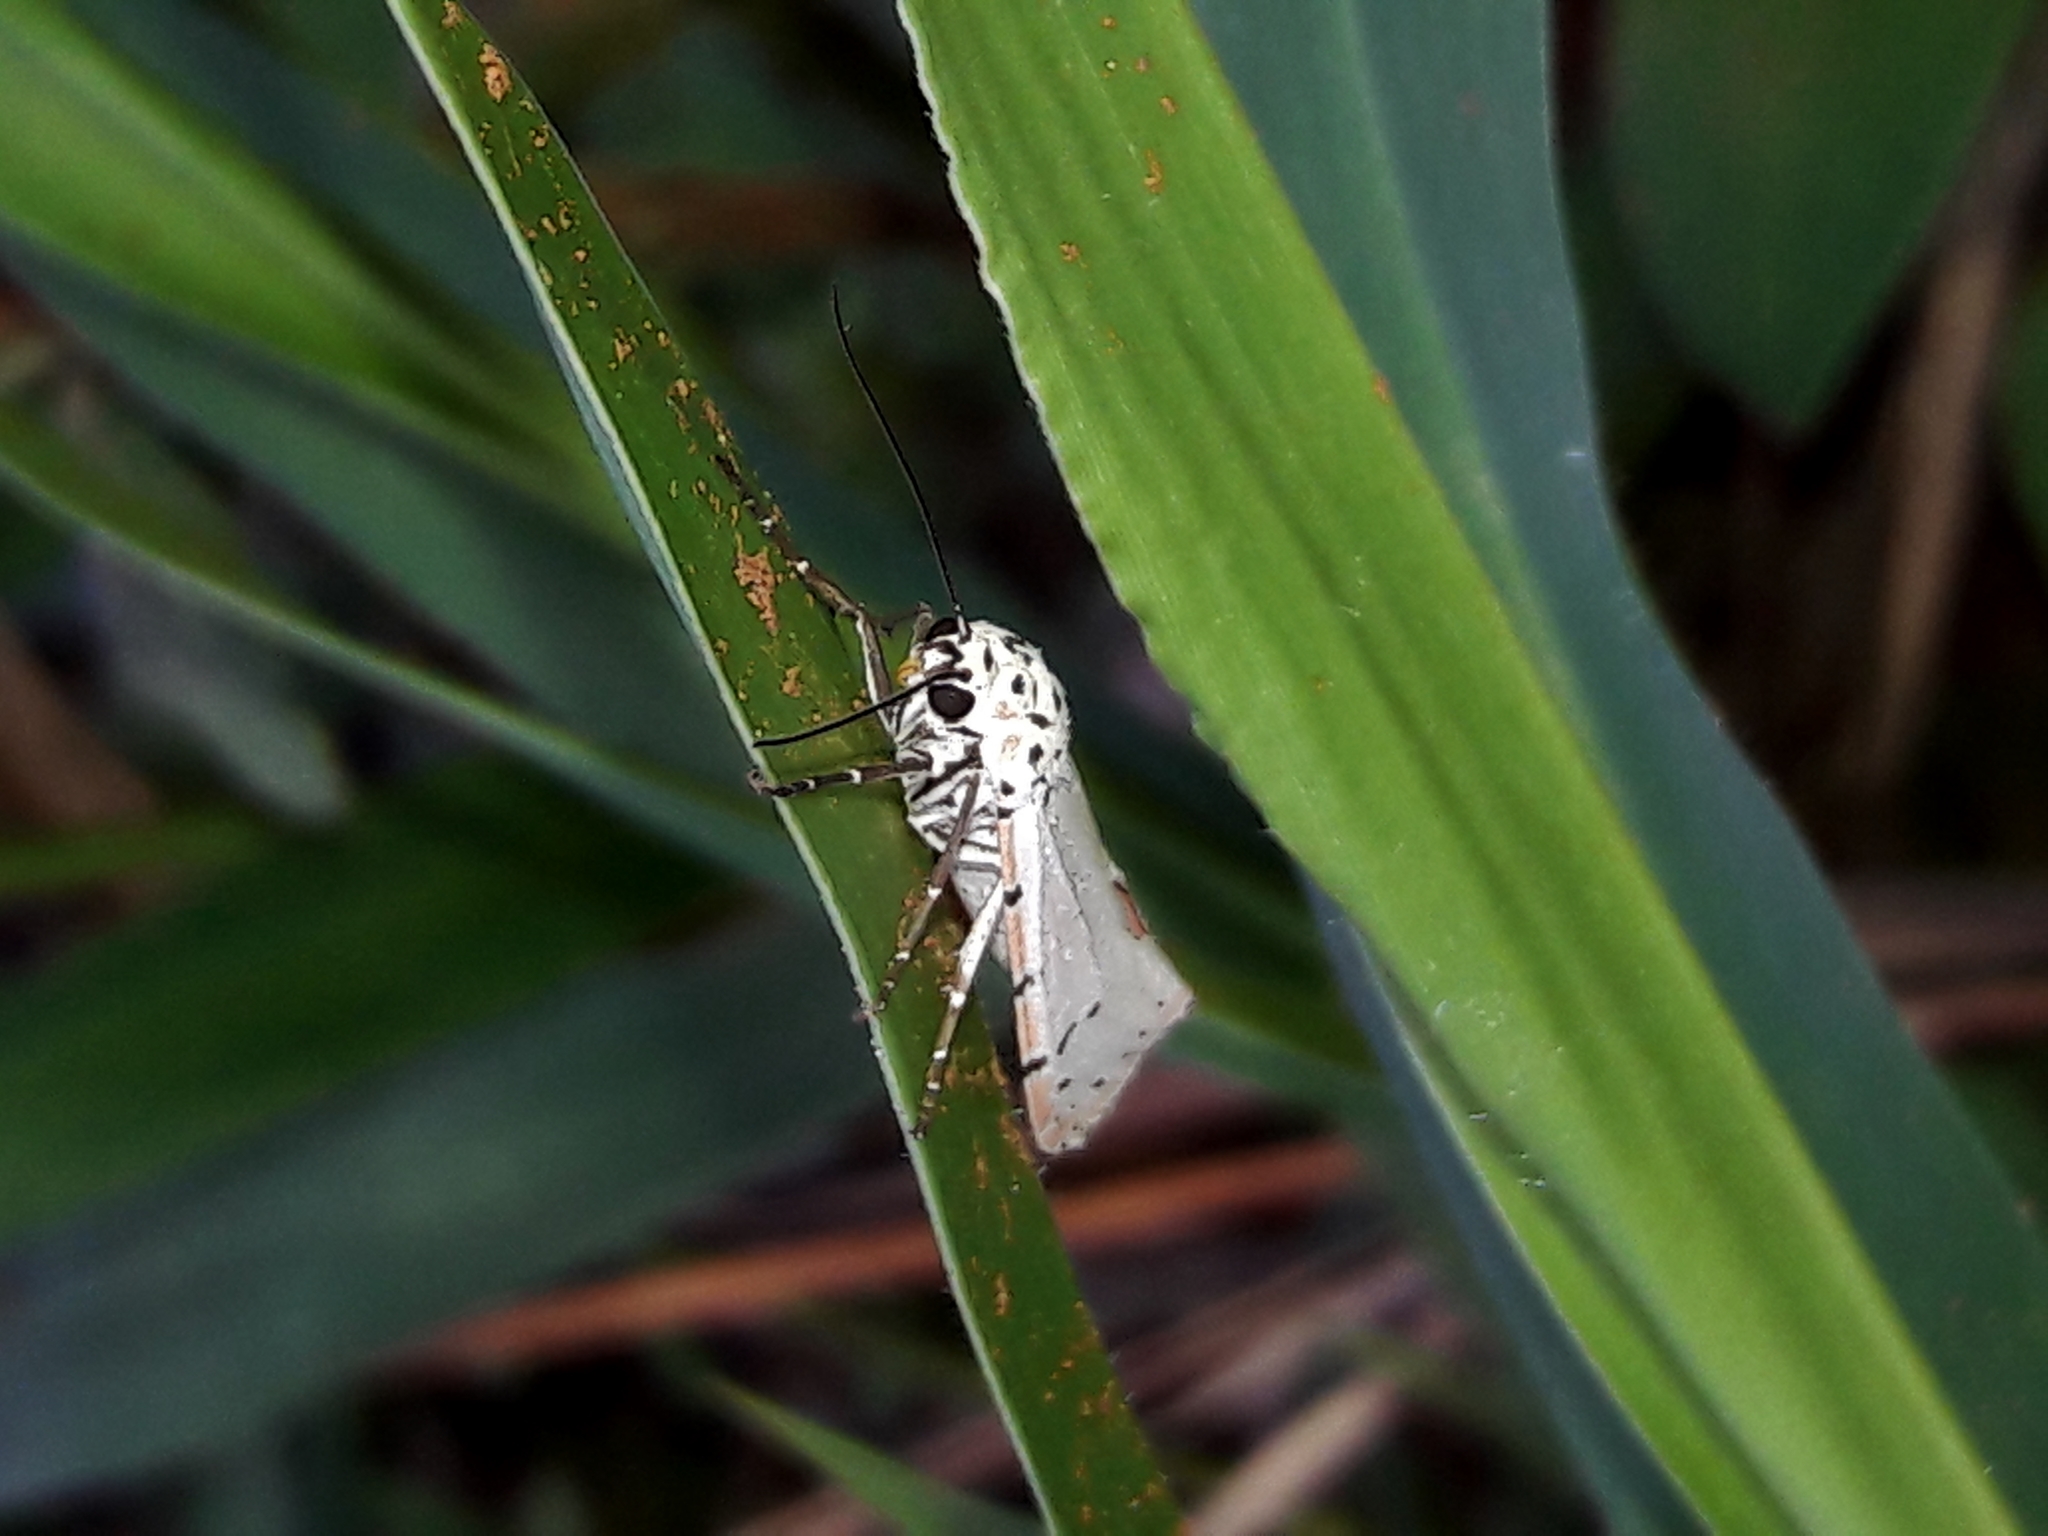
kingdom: Animalia
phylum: Arthropoda
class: Insecta
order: Lepidoptera
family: Erebidae
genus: Utetheisa
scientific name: Utetheisa ornatrix
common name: Beautiful utetheisa
